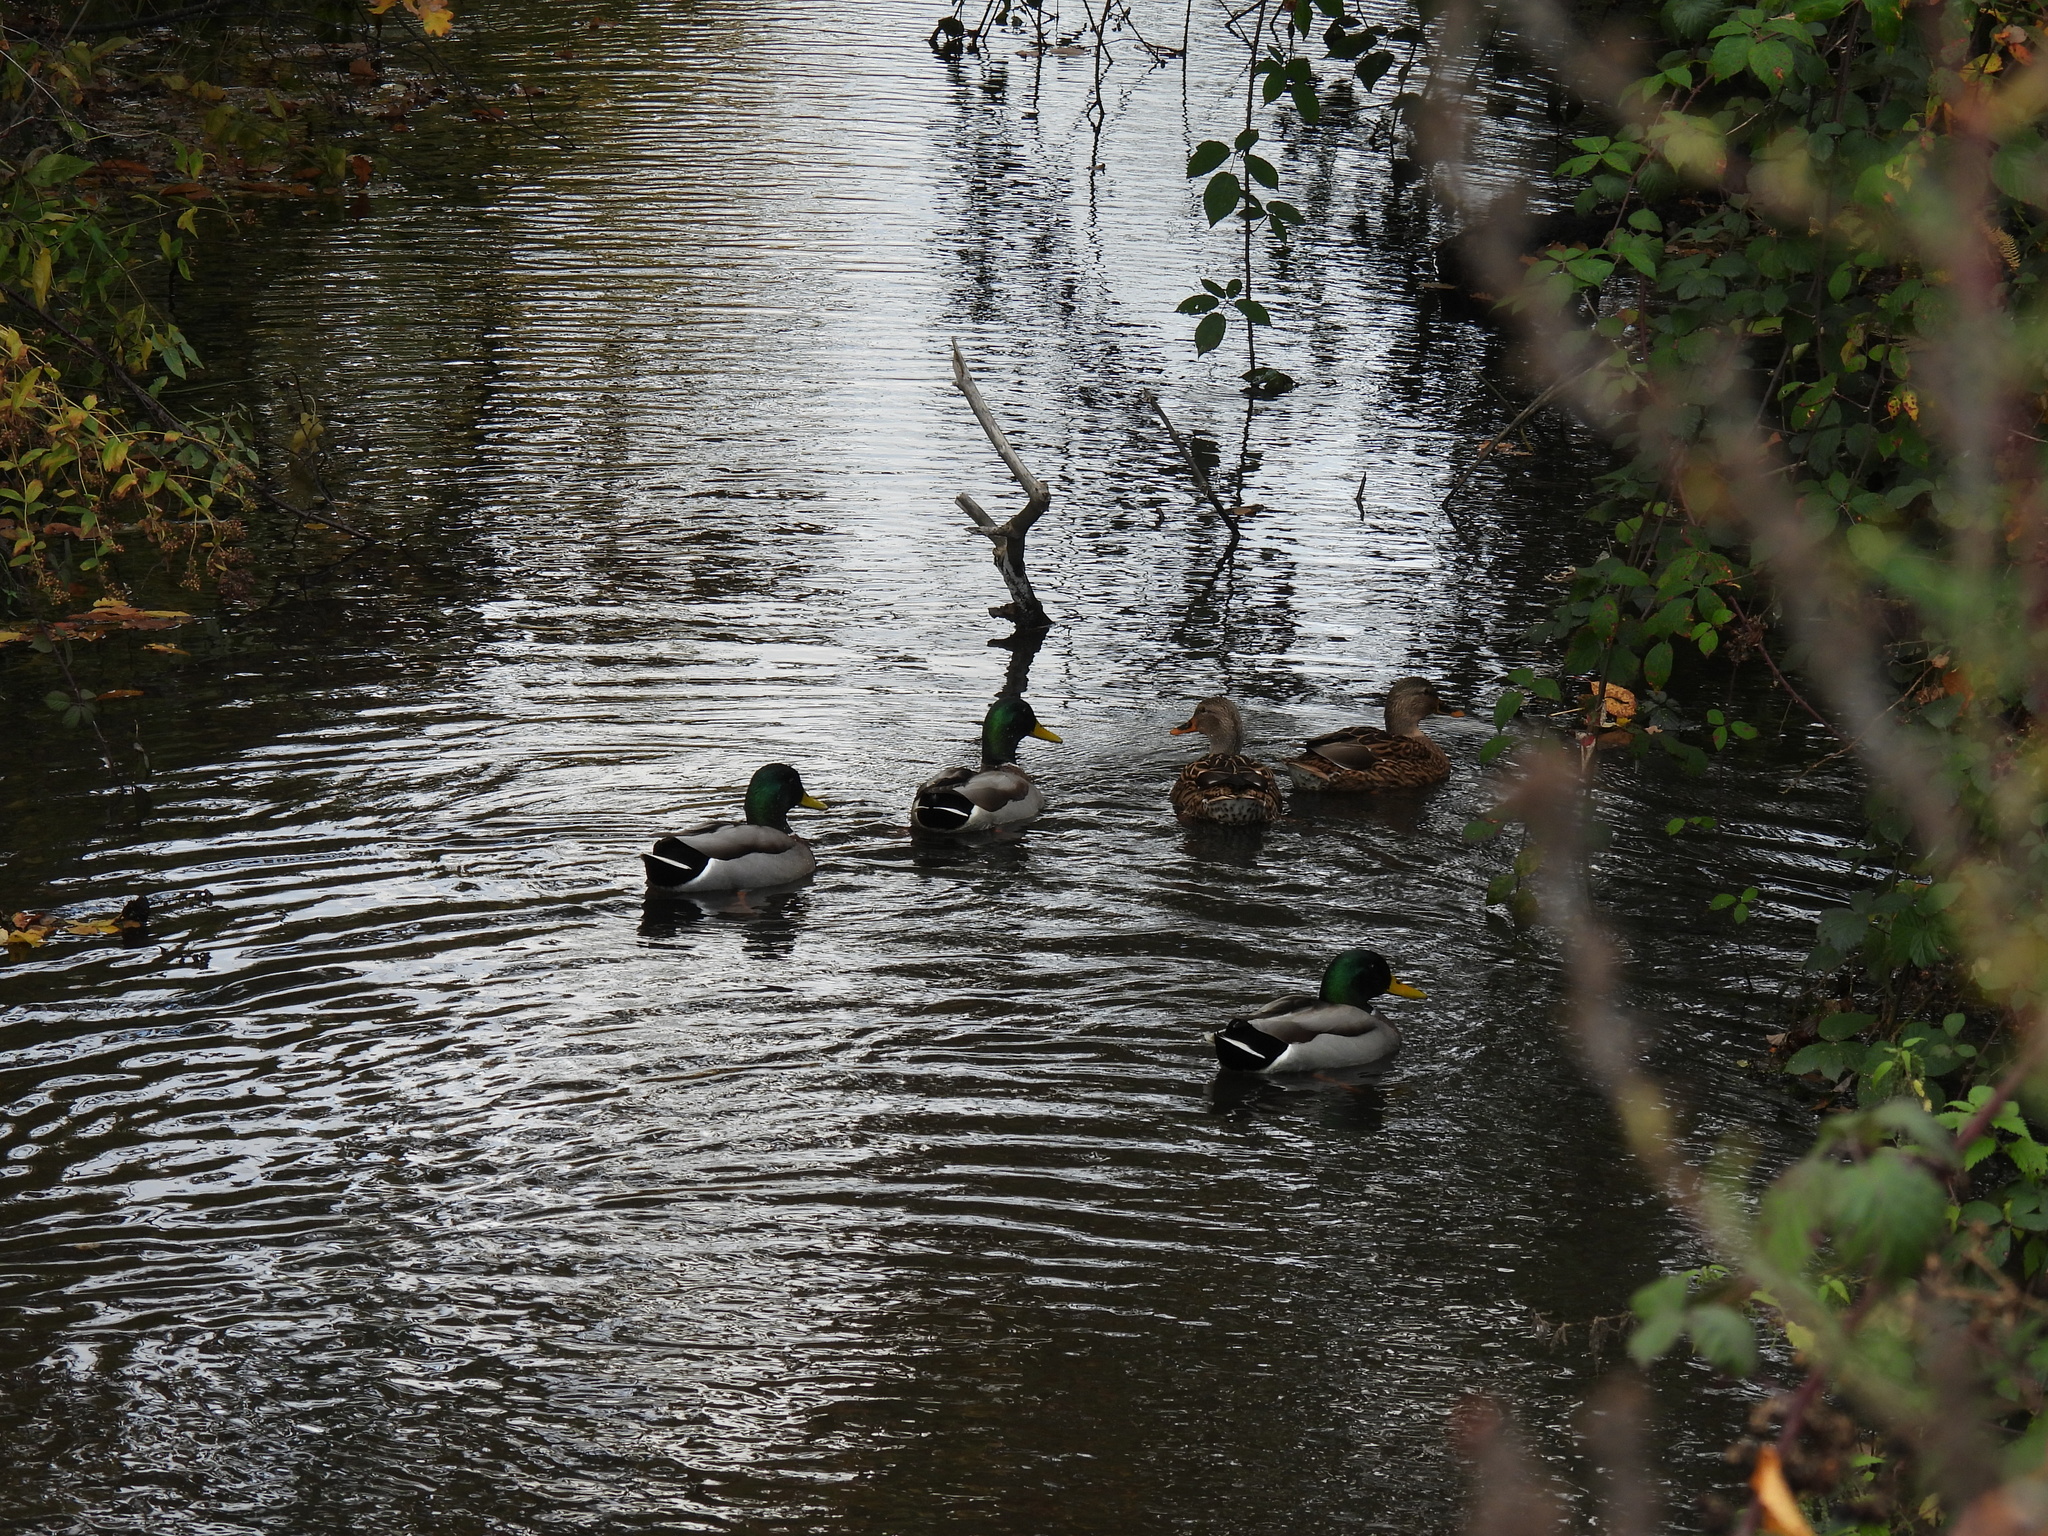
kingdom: Animalia
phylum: Chordata
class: Aves
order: Anseriformes
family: Anatidae
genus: Anas
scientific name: Anas platyrhynchos
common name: Mallard
